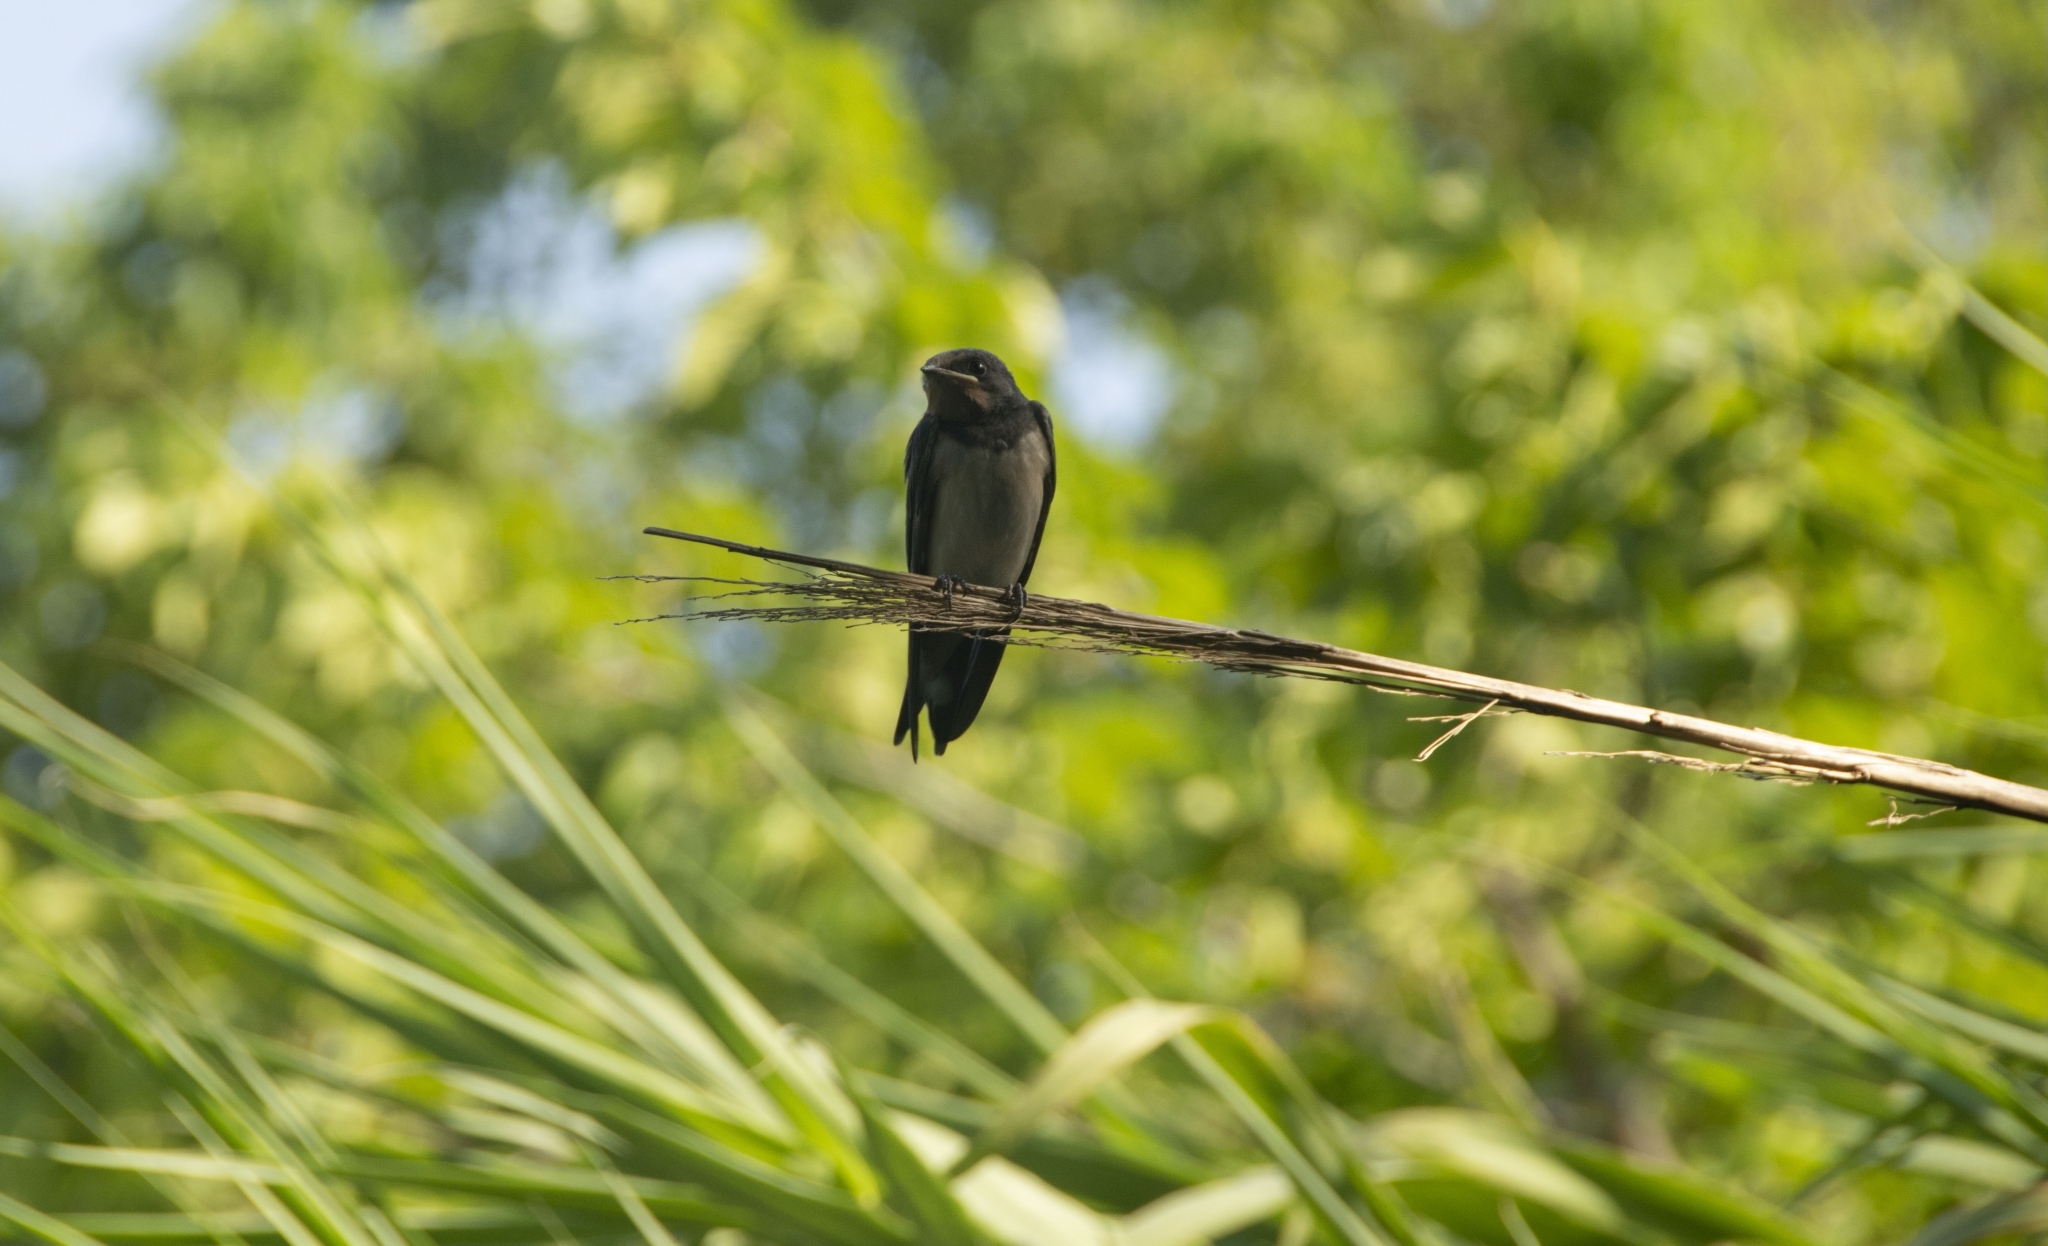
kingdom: Animalia
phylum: Chordata
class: Aves
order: Passeriformes
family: Hirundinidae
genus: Hirundo
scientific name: Hirundo rustica
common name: Barn swallow
